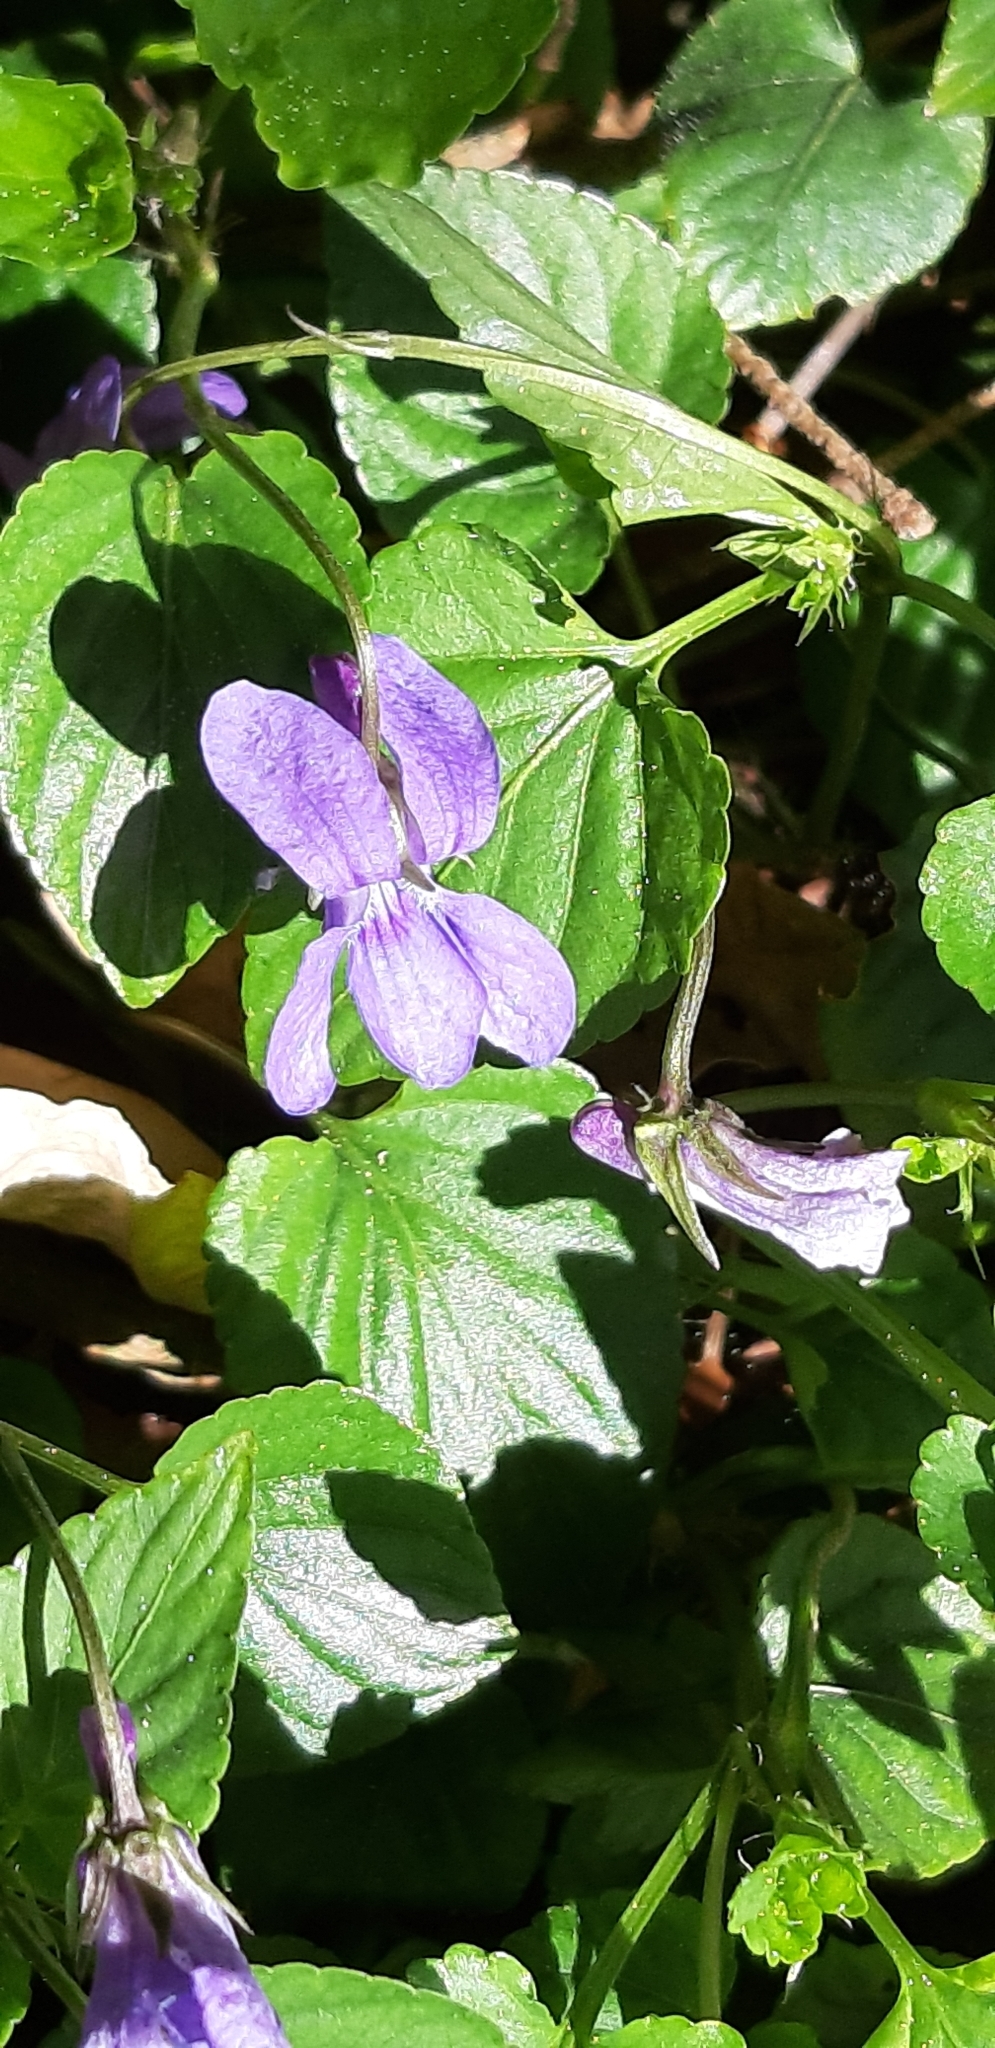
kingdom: Plantae
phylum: Tracheophyta
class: Magnoliopsida
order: Malpighiales
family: Violaceae
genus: Viola
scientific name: Viola reichenbachiana
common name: Early dog-violet
